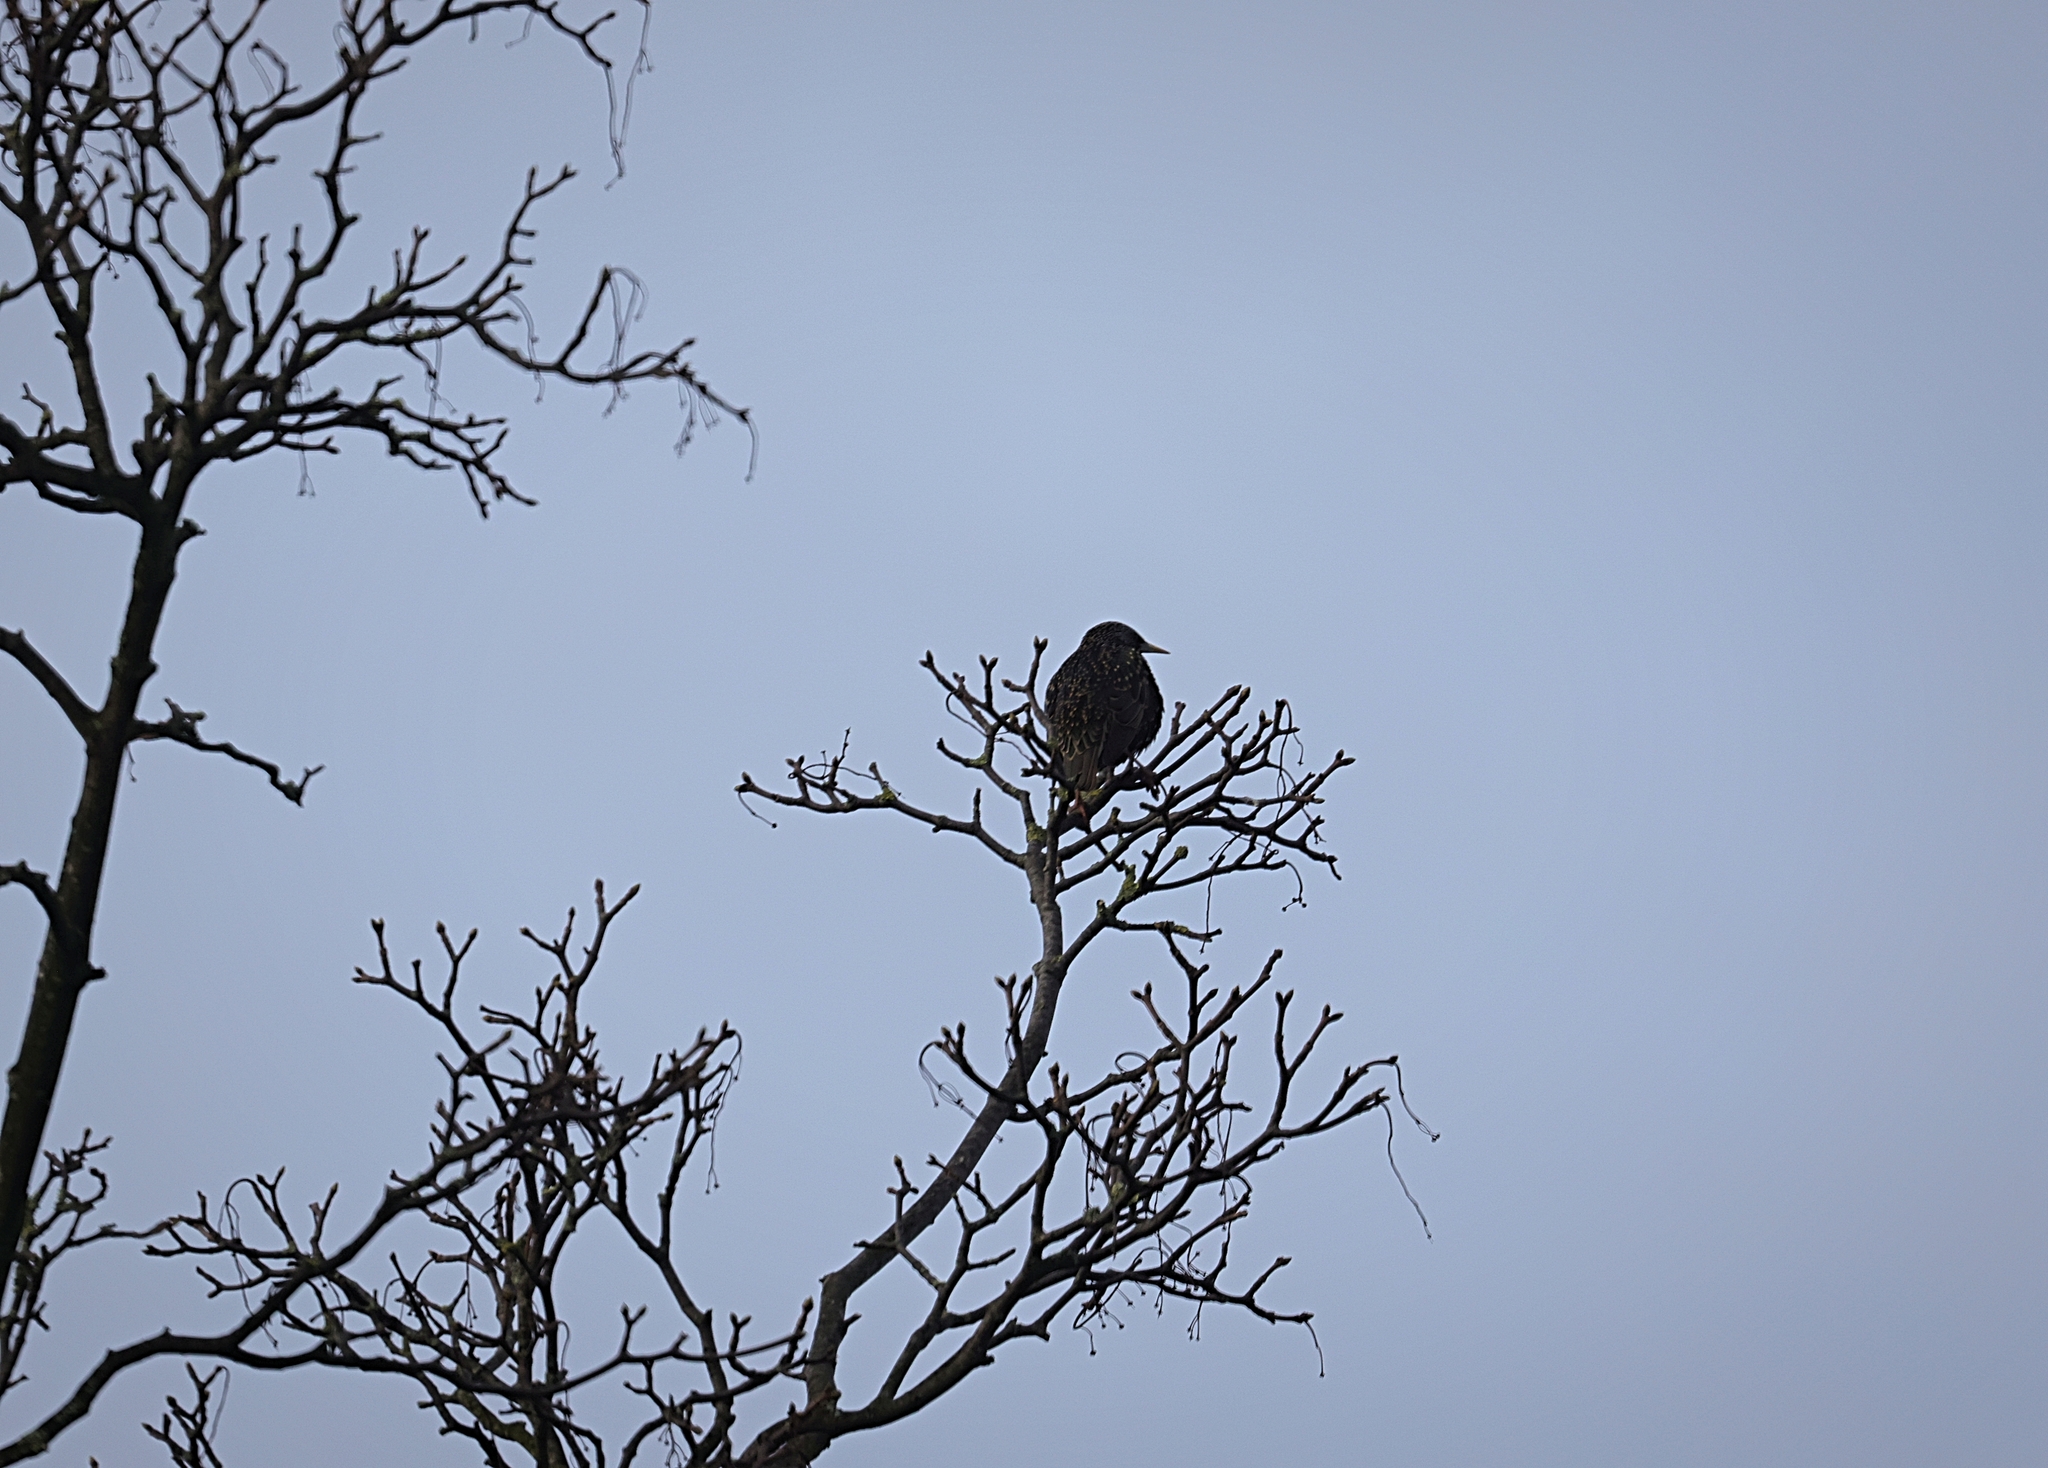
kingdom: Animalia
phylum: Chordata
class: Aves
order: Passeriformes
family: Sturnidae
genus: Sturnus
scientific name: Sturnus vulgaris
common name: Common starling
